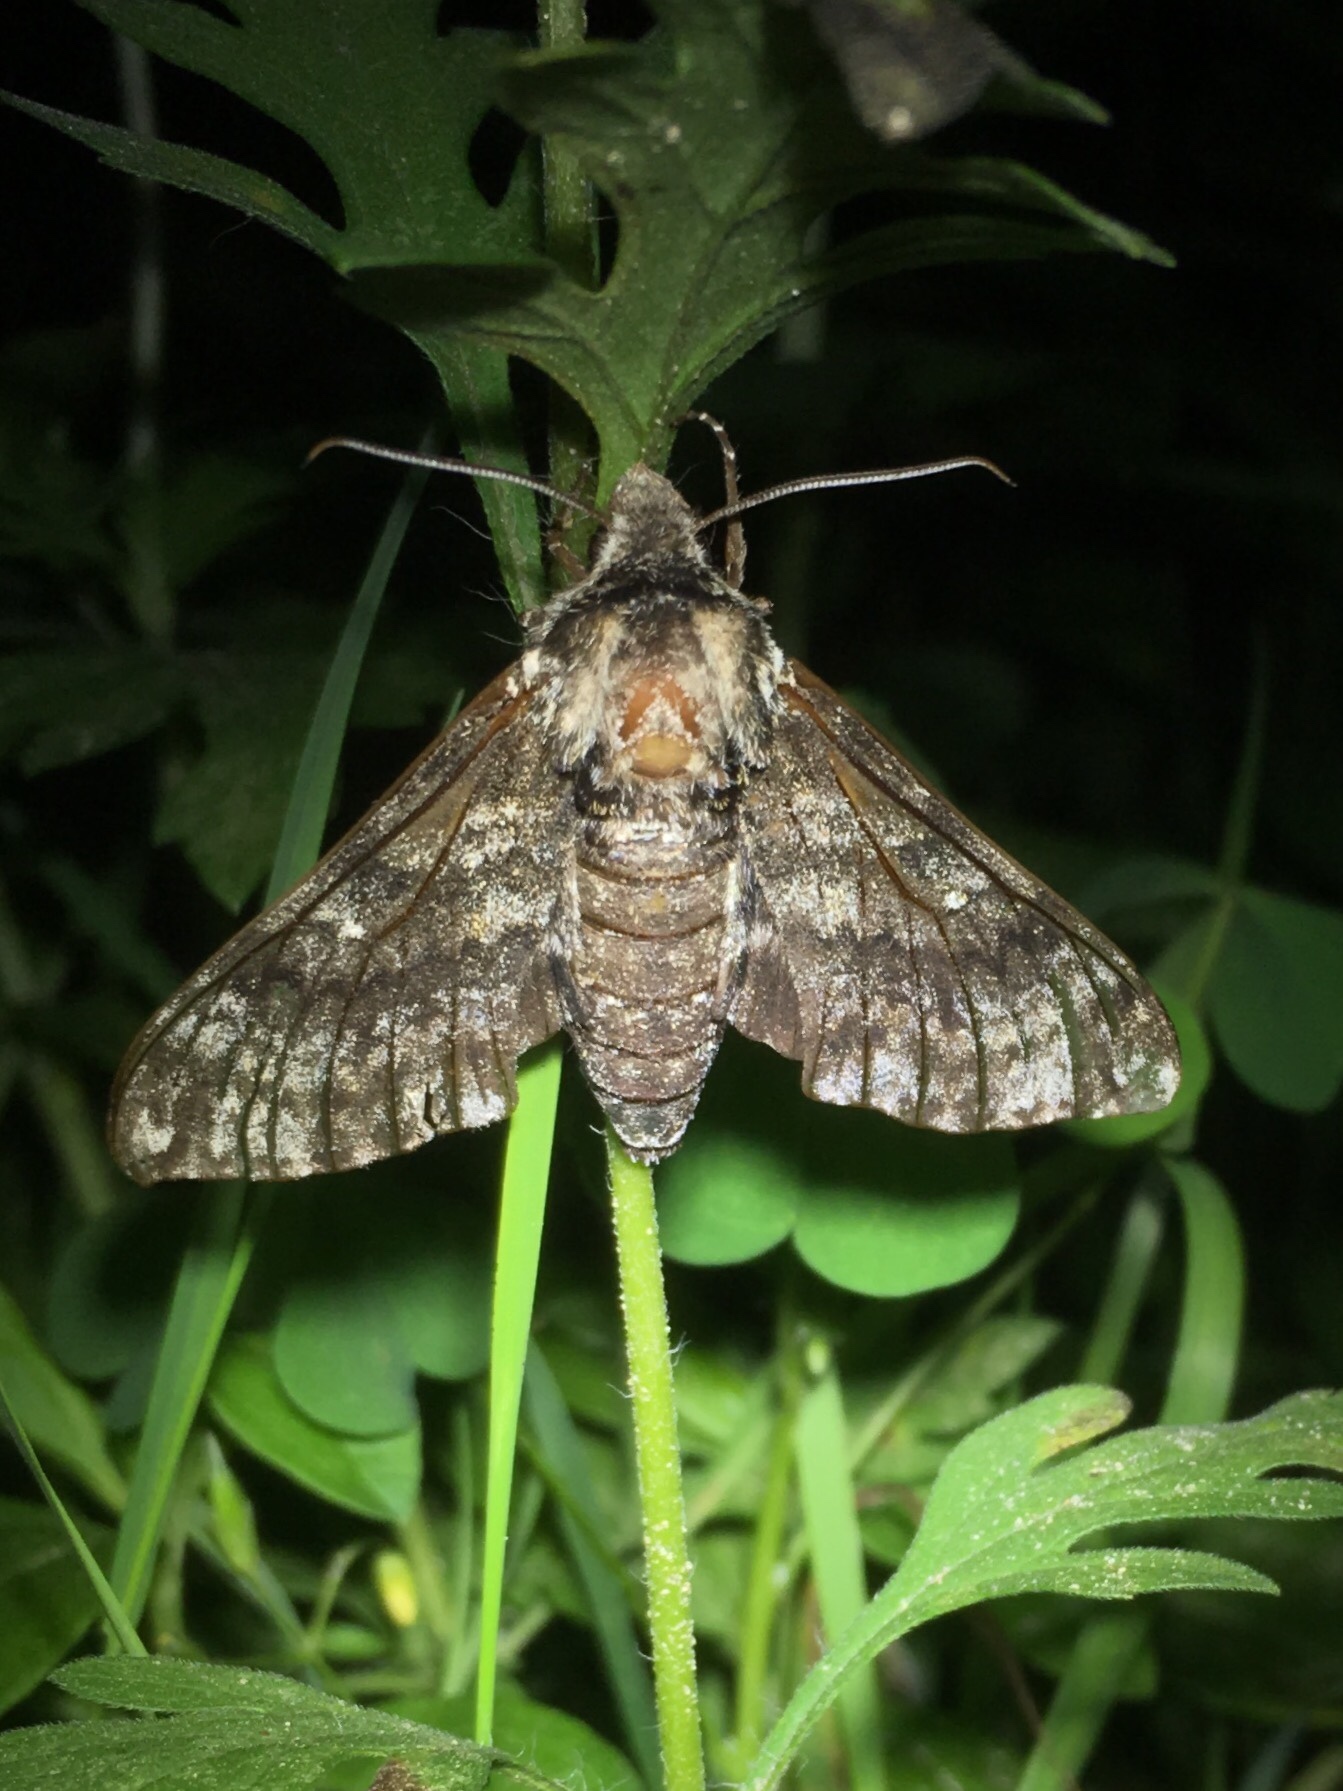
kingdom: Animalia
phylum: Arthropoda
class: Insecta
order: Lepidoptera
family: Sphingidae
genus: Dolba
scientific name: Dolba hyloeus
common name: Pawpaw sphinx
